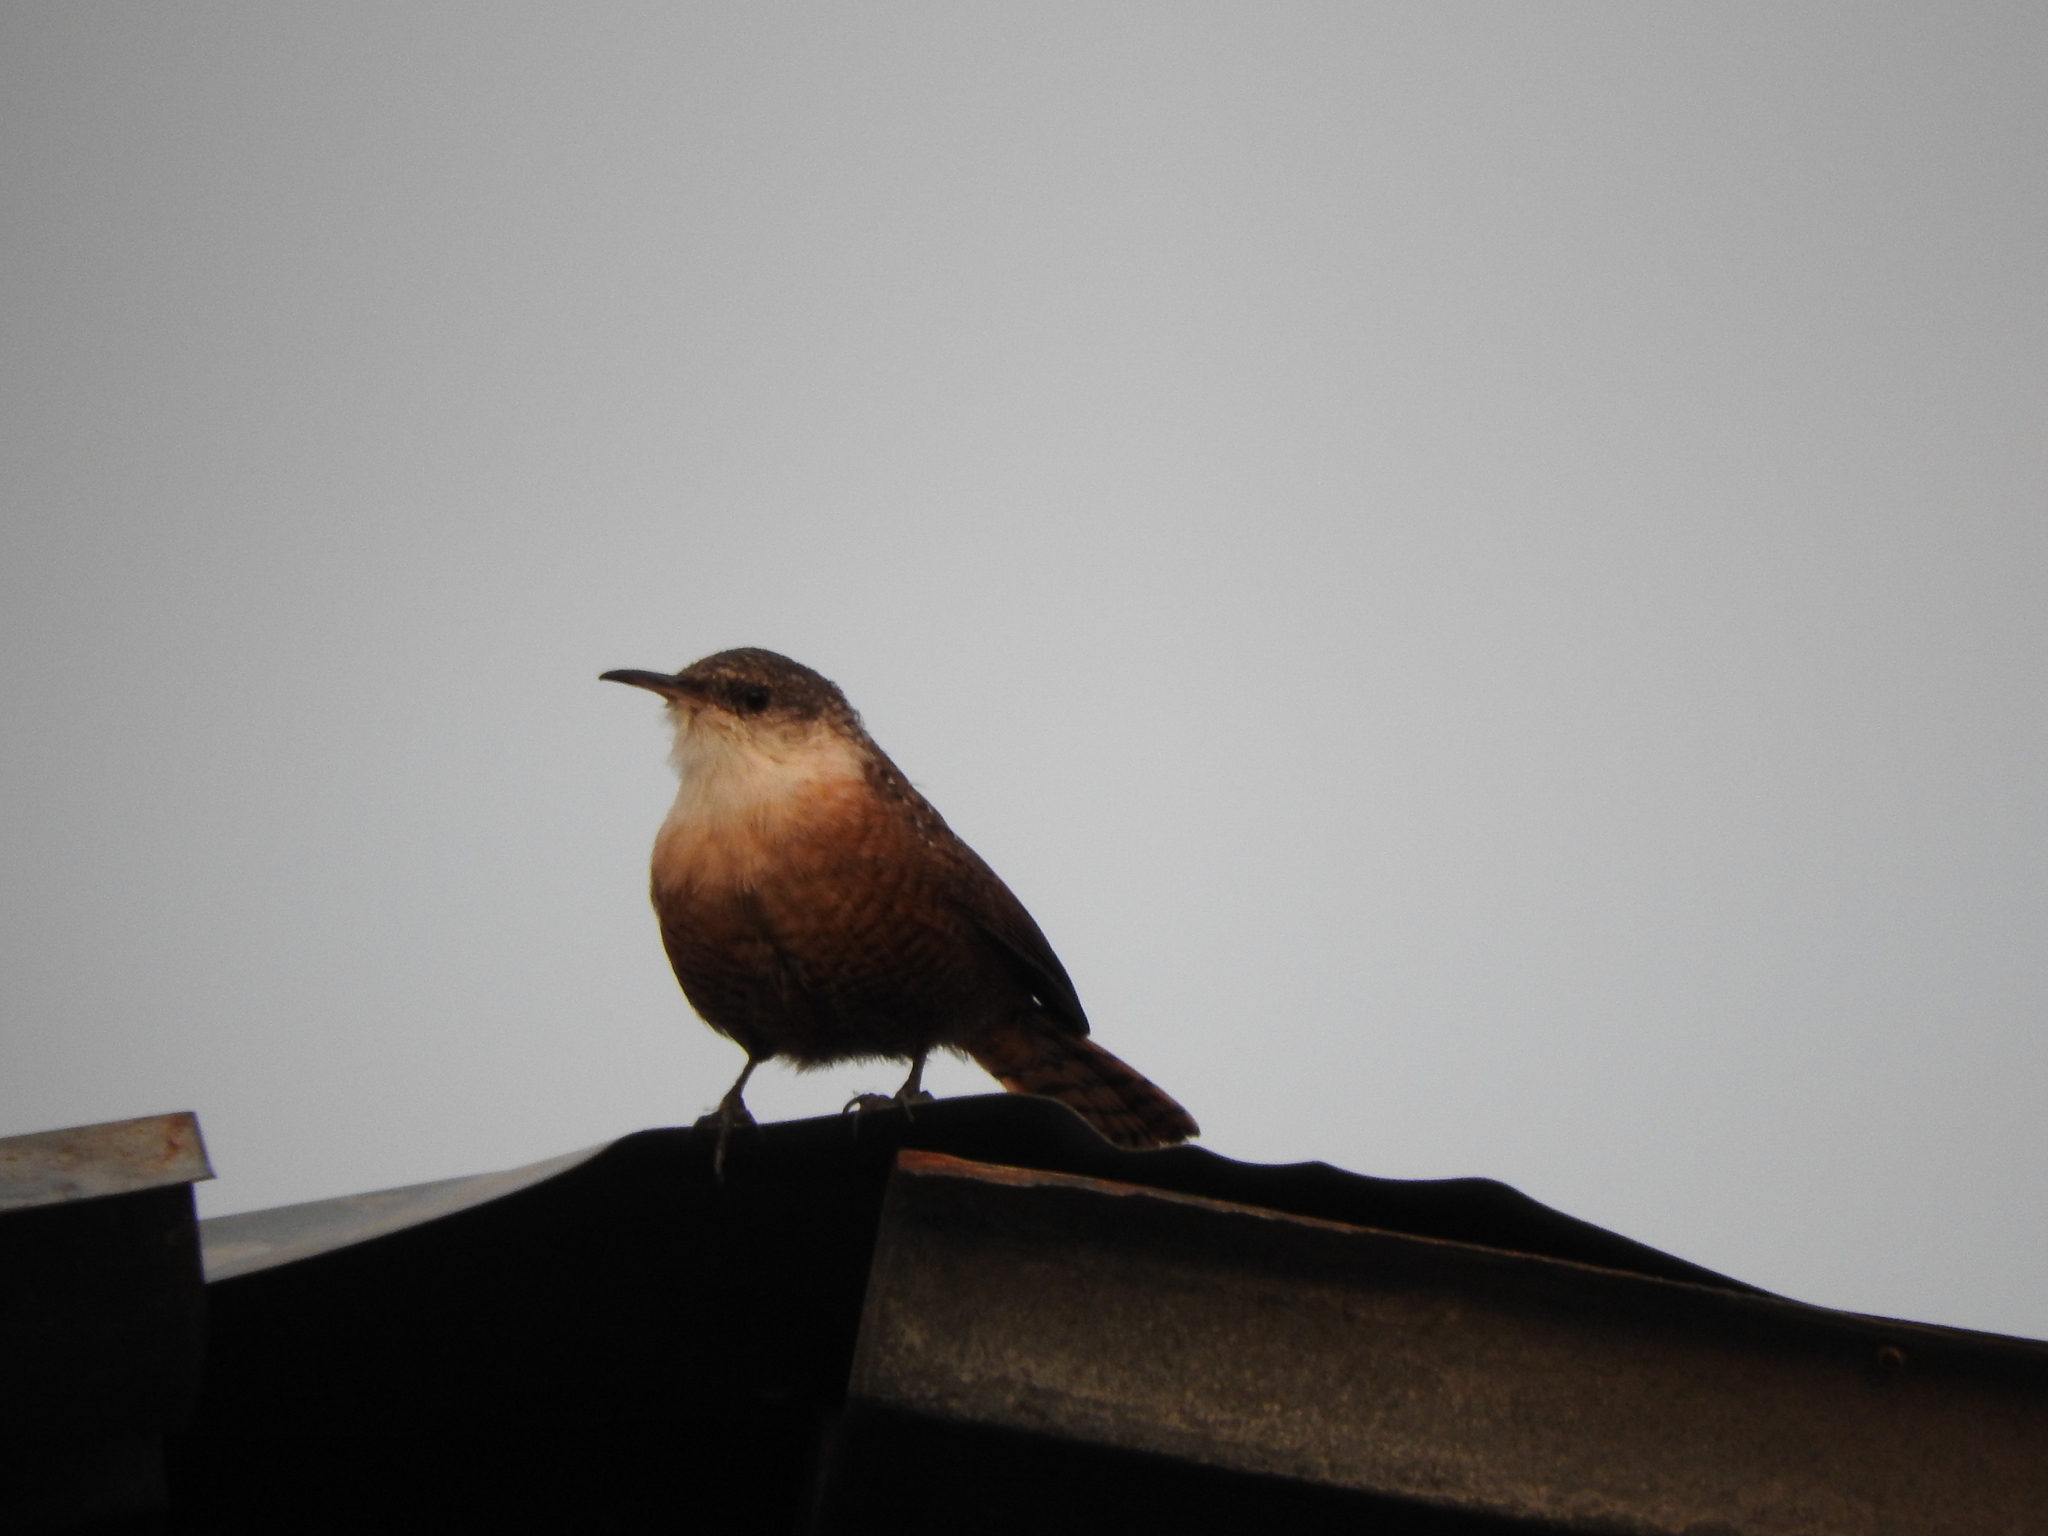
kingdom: Animalia
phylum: Chordata
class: Aves
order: Passeriformes
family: Troglodytidae
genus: Catherpes
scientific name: Catherpes mexicanus
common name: Canyon wren
